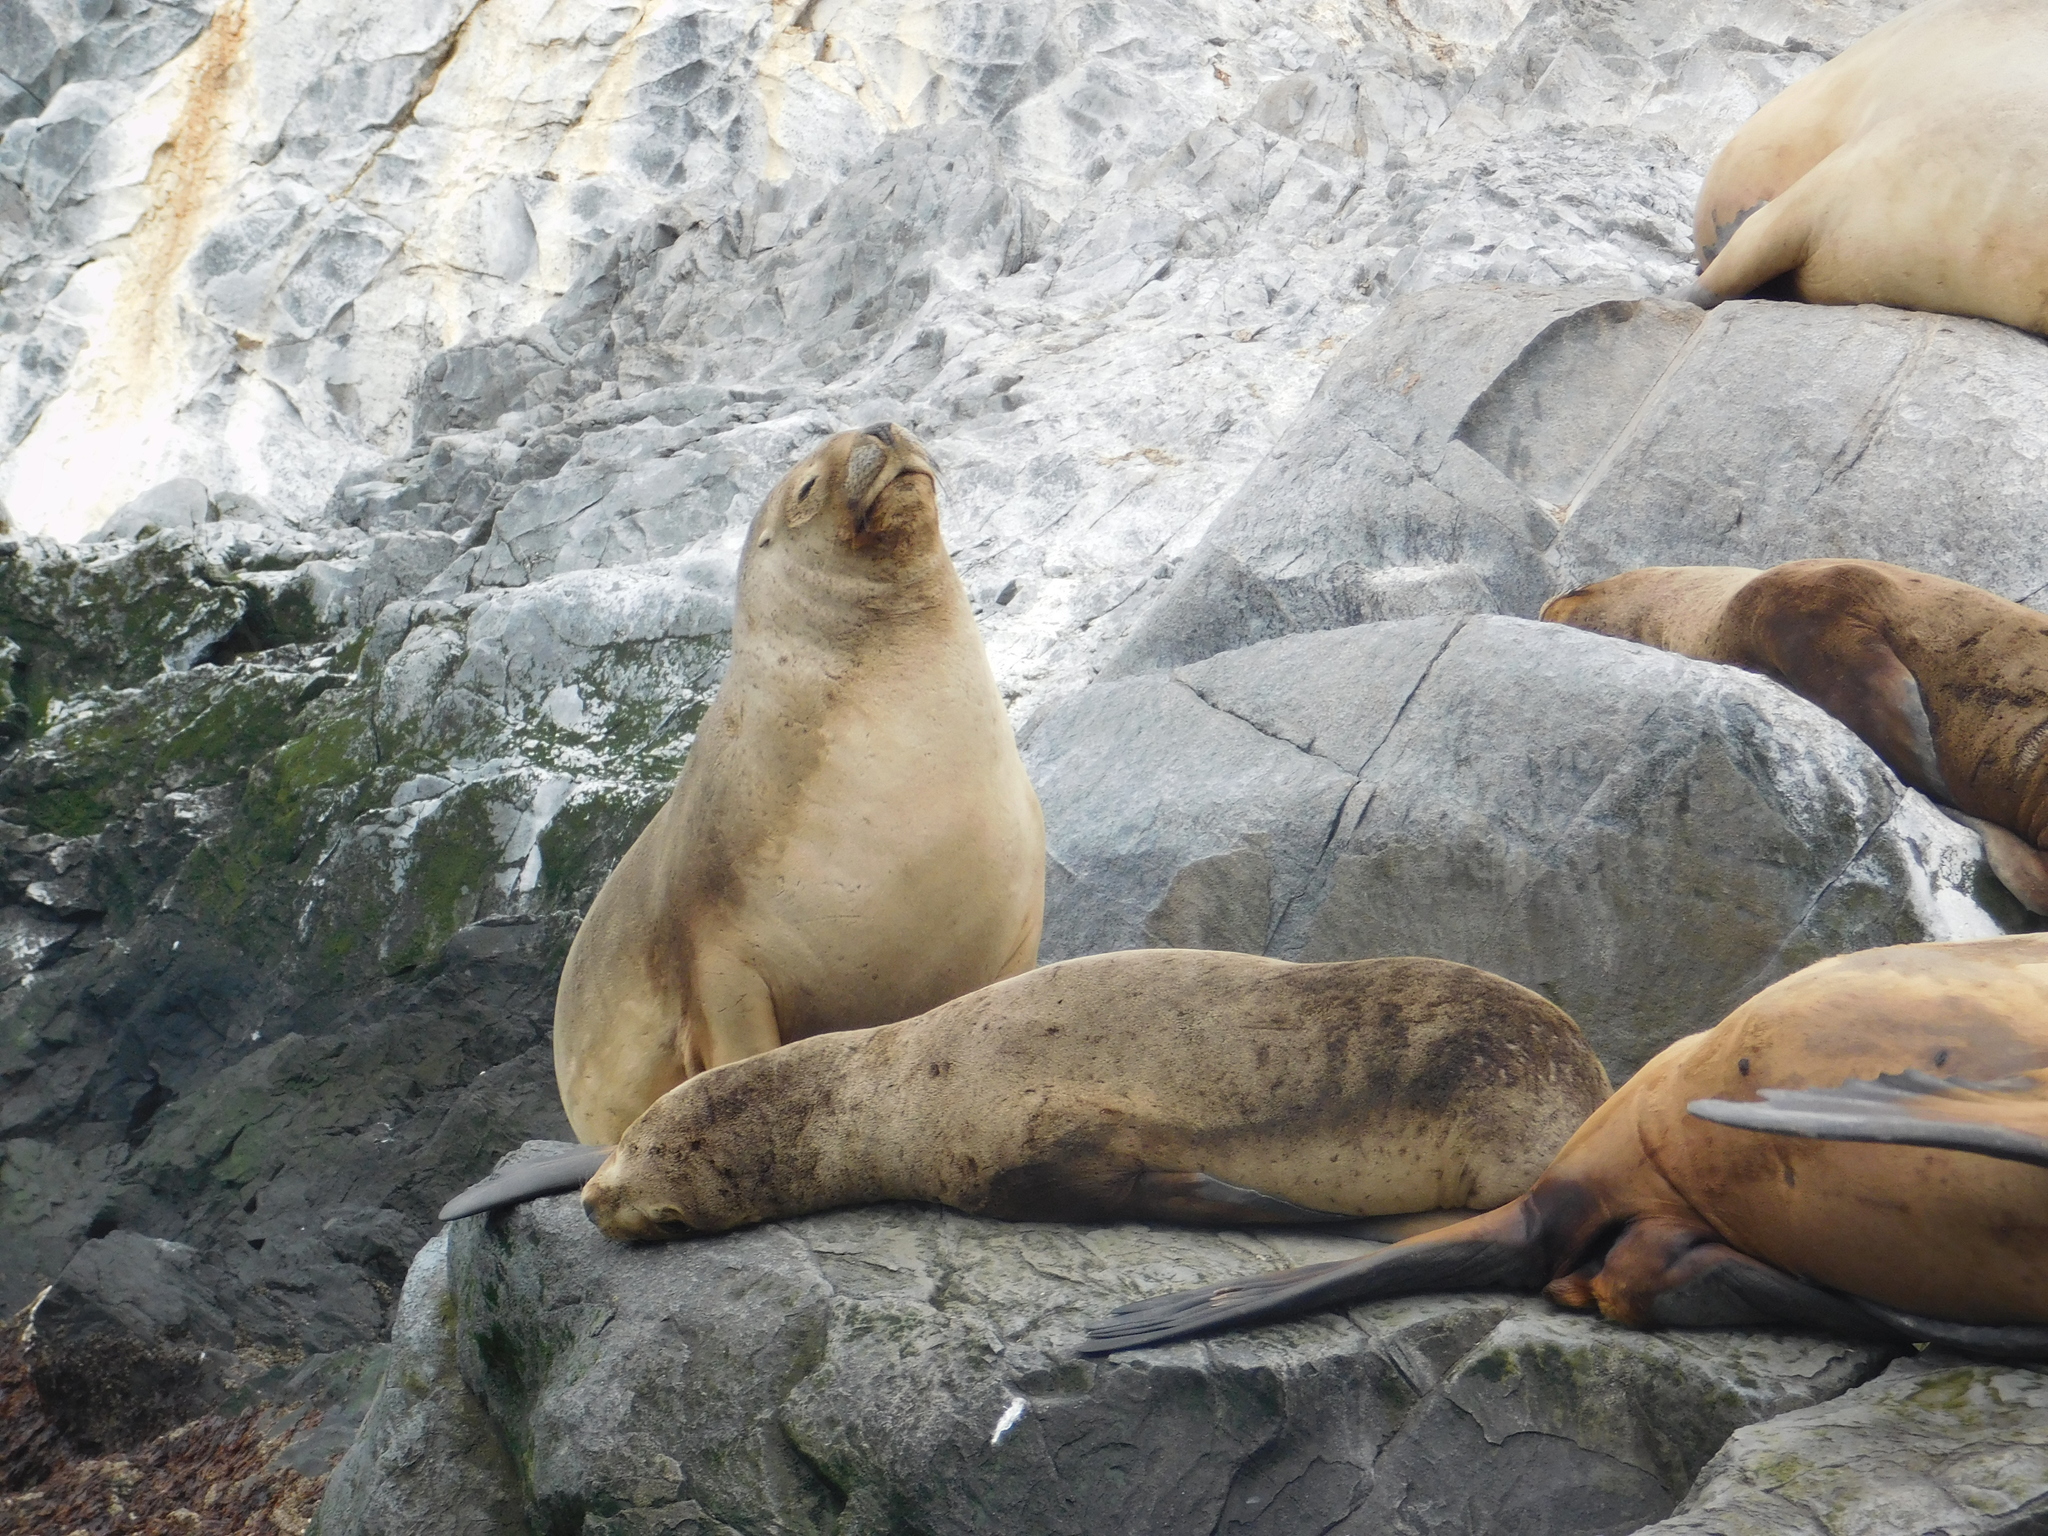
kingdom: Animalia
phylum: Chordata
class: Mammalia
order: Carnivora
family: Otariidae
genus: Otaria
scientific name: Otaria byronia
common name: South american sea lion
